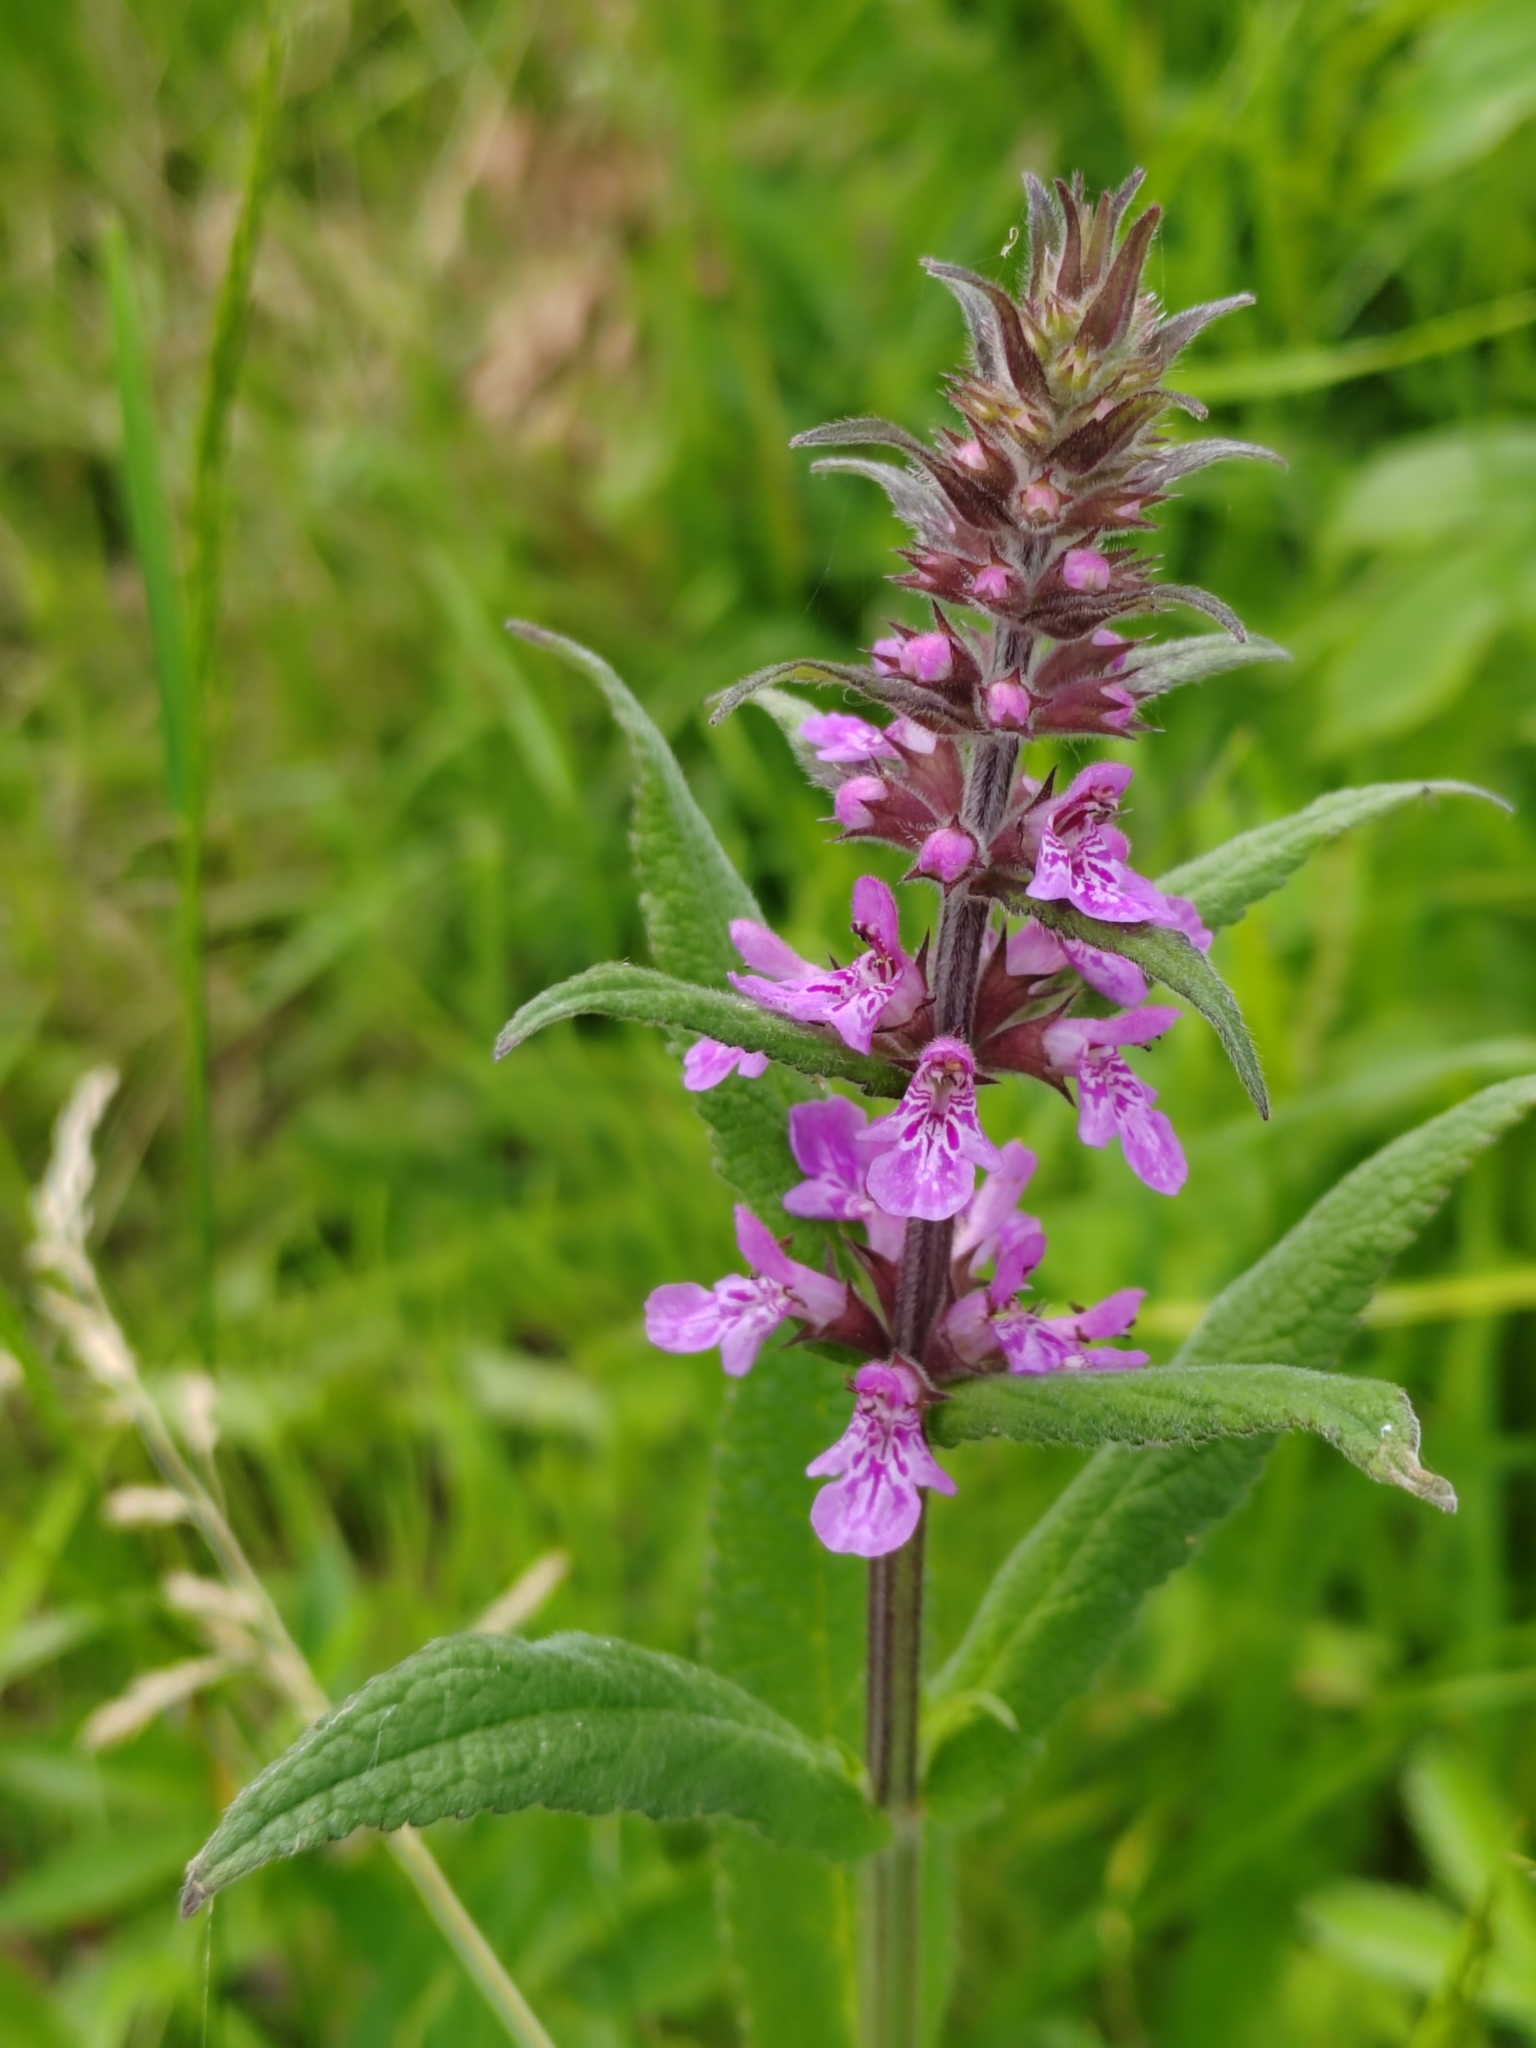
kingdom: Plantae
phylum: Tracheophyta
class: Magnoliopsida
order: Lamiales
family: Lamiaceae
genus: Stachys
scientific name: Stachys palustris
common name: Marsh woundwort
